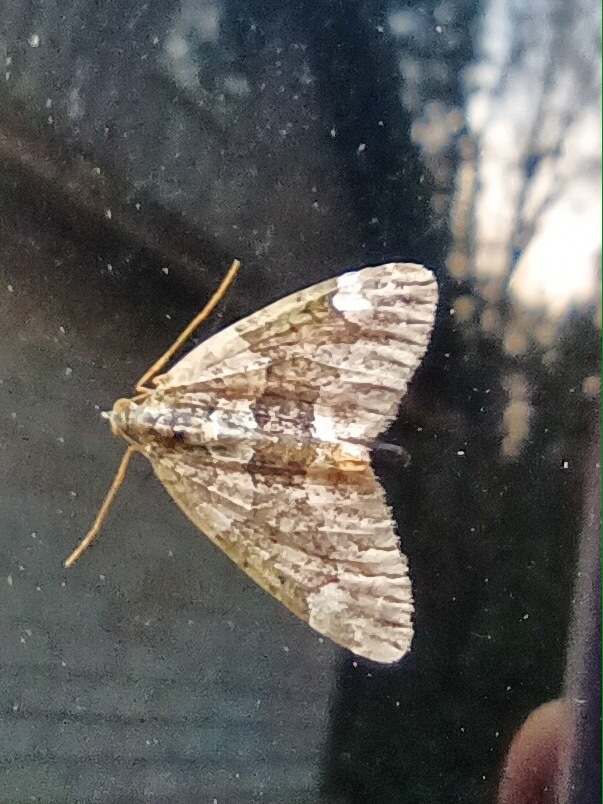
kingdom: Animalia
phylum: Arthropoda
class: Insecta
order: Lepidoptera
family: Geometridae
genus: Chloroclysta
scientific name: Chloroclysta siterata
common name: Red-green carpet
